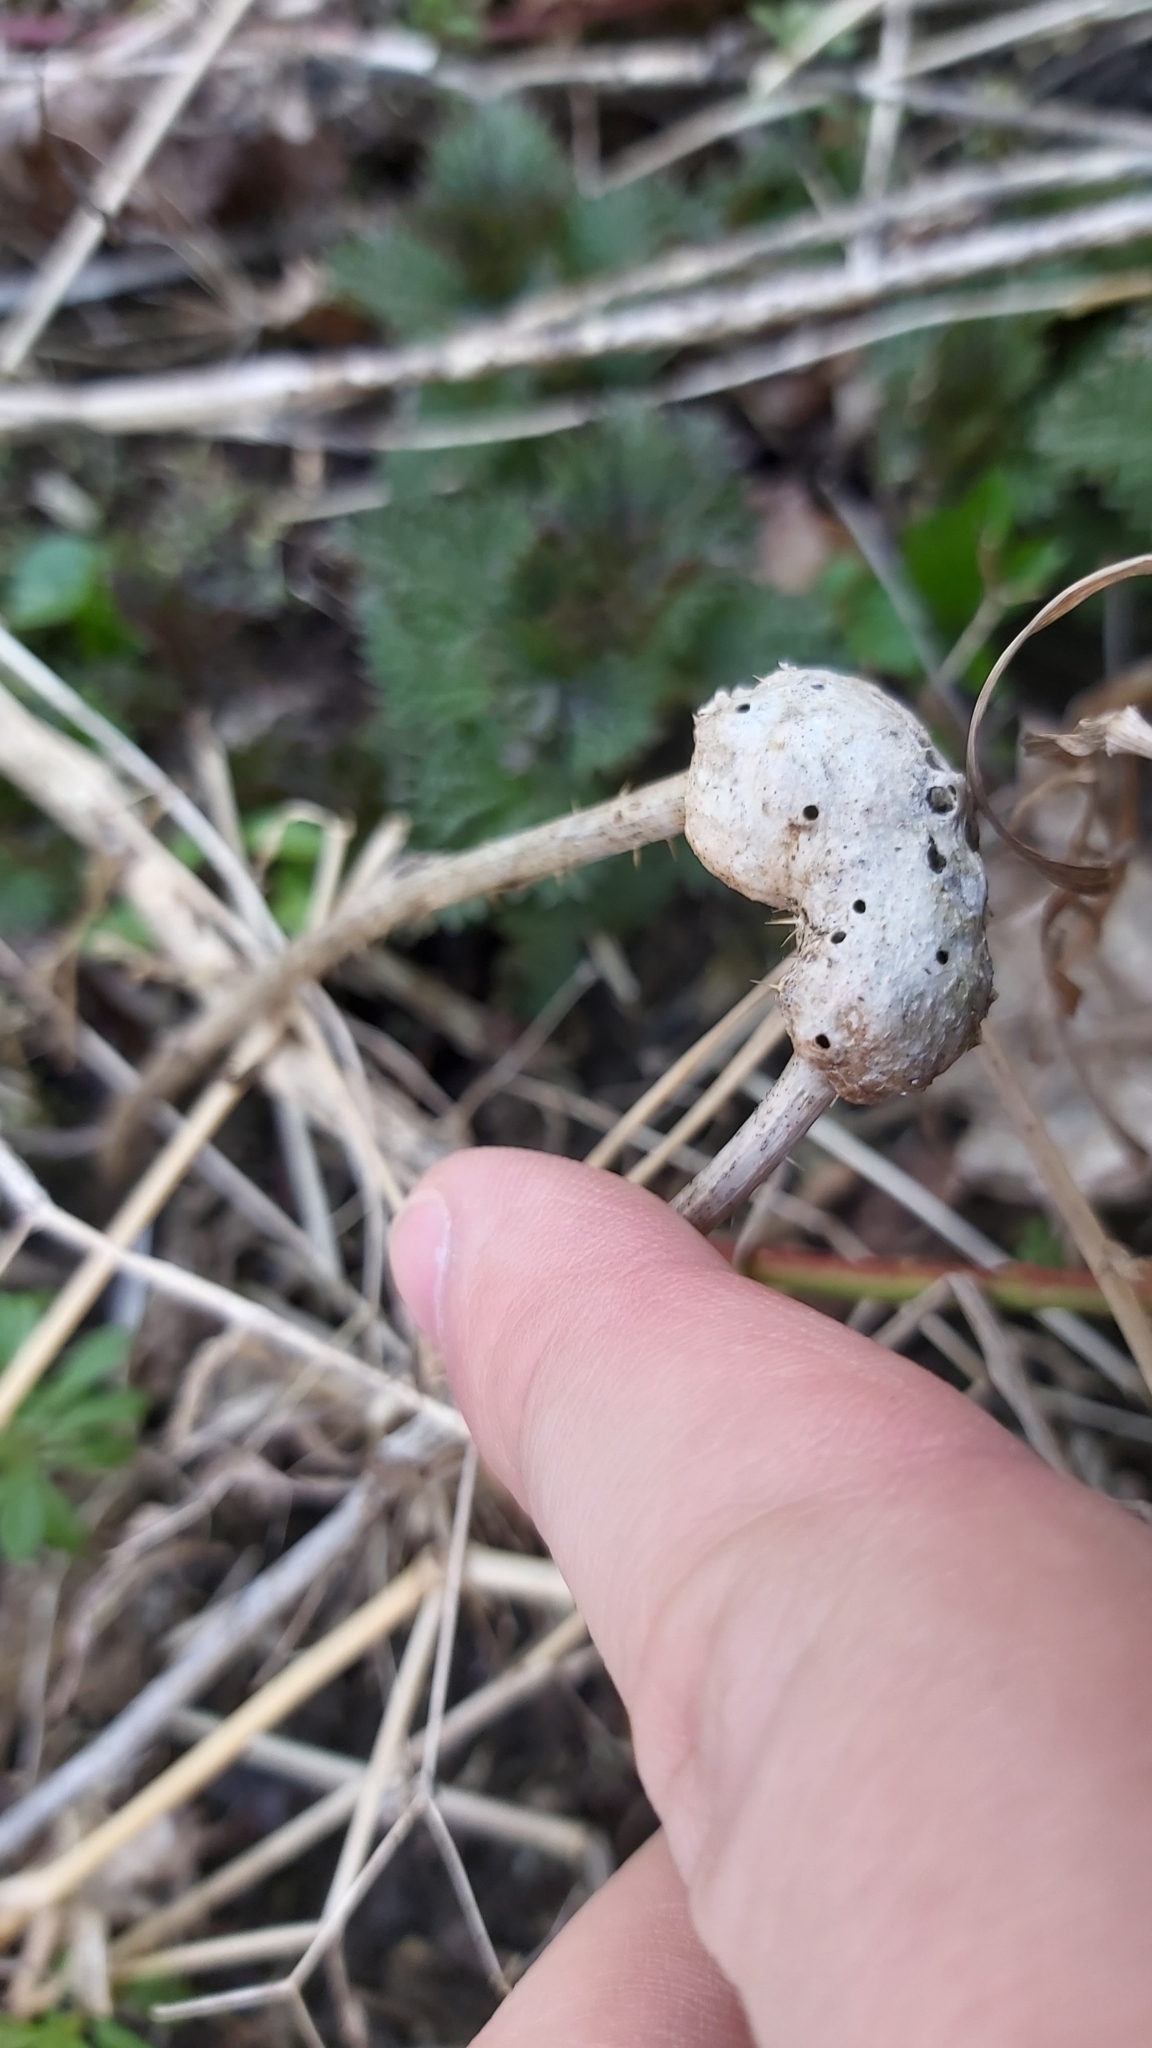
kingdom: Animalia
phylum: Arthropoda
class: Insecta
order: Hymenoptera
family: Cynipidae
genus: Diastrophus
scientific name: Diastrophus rubi
